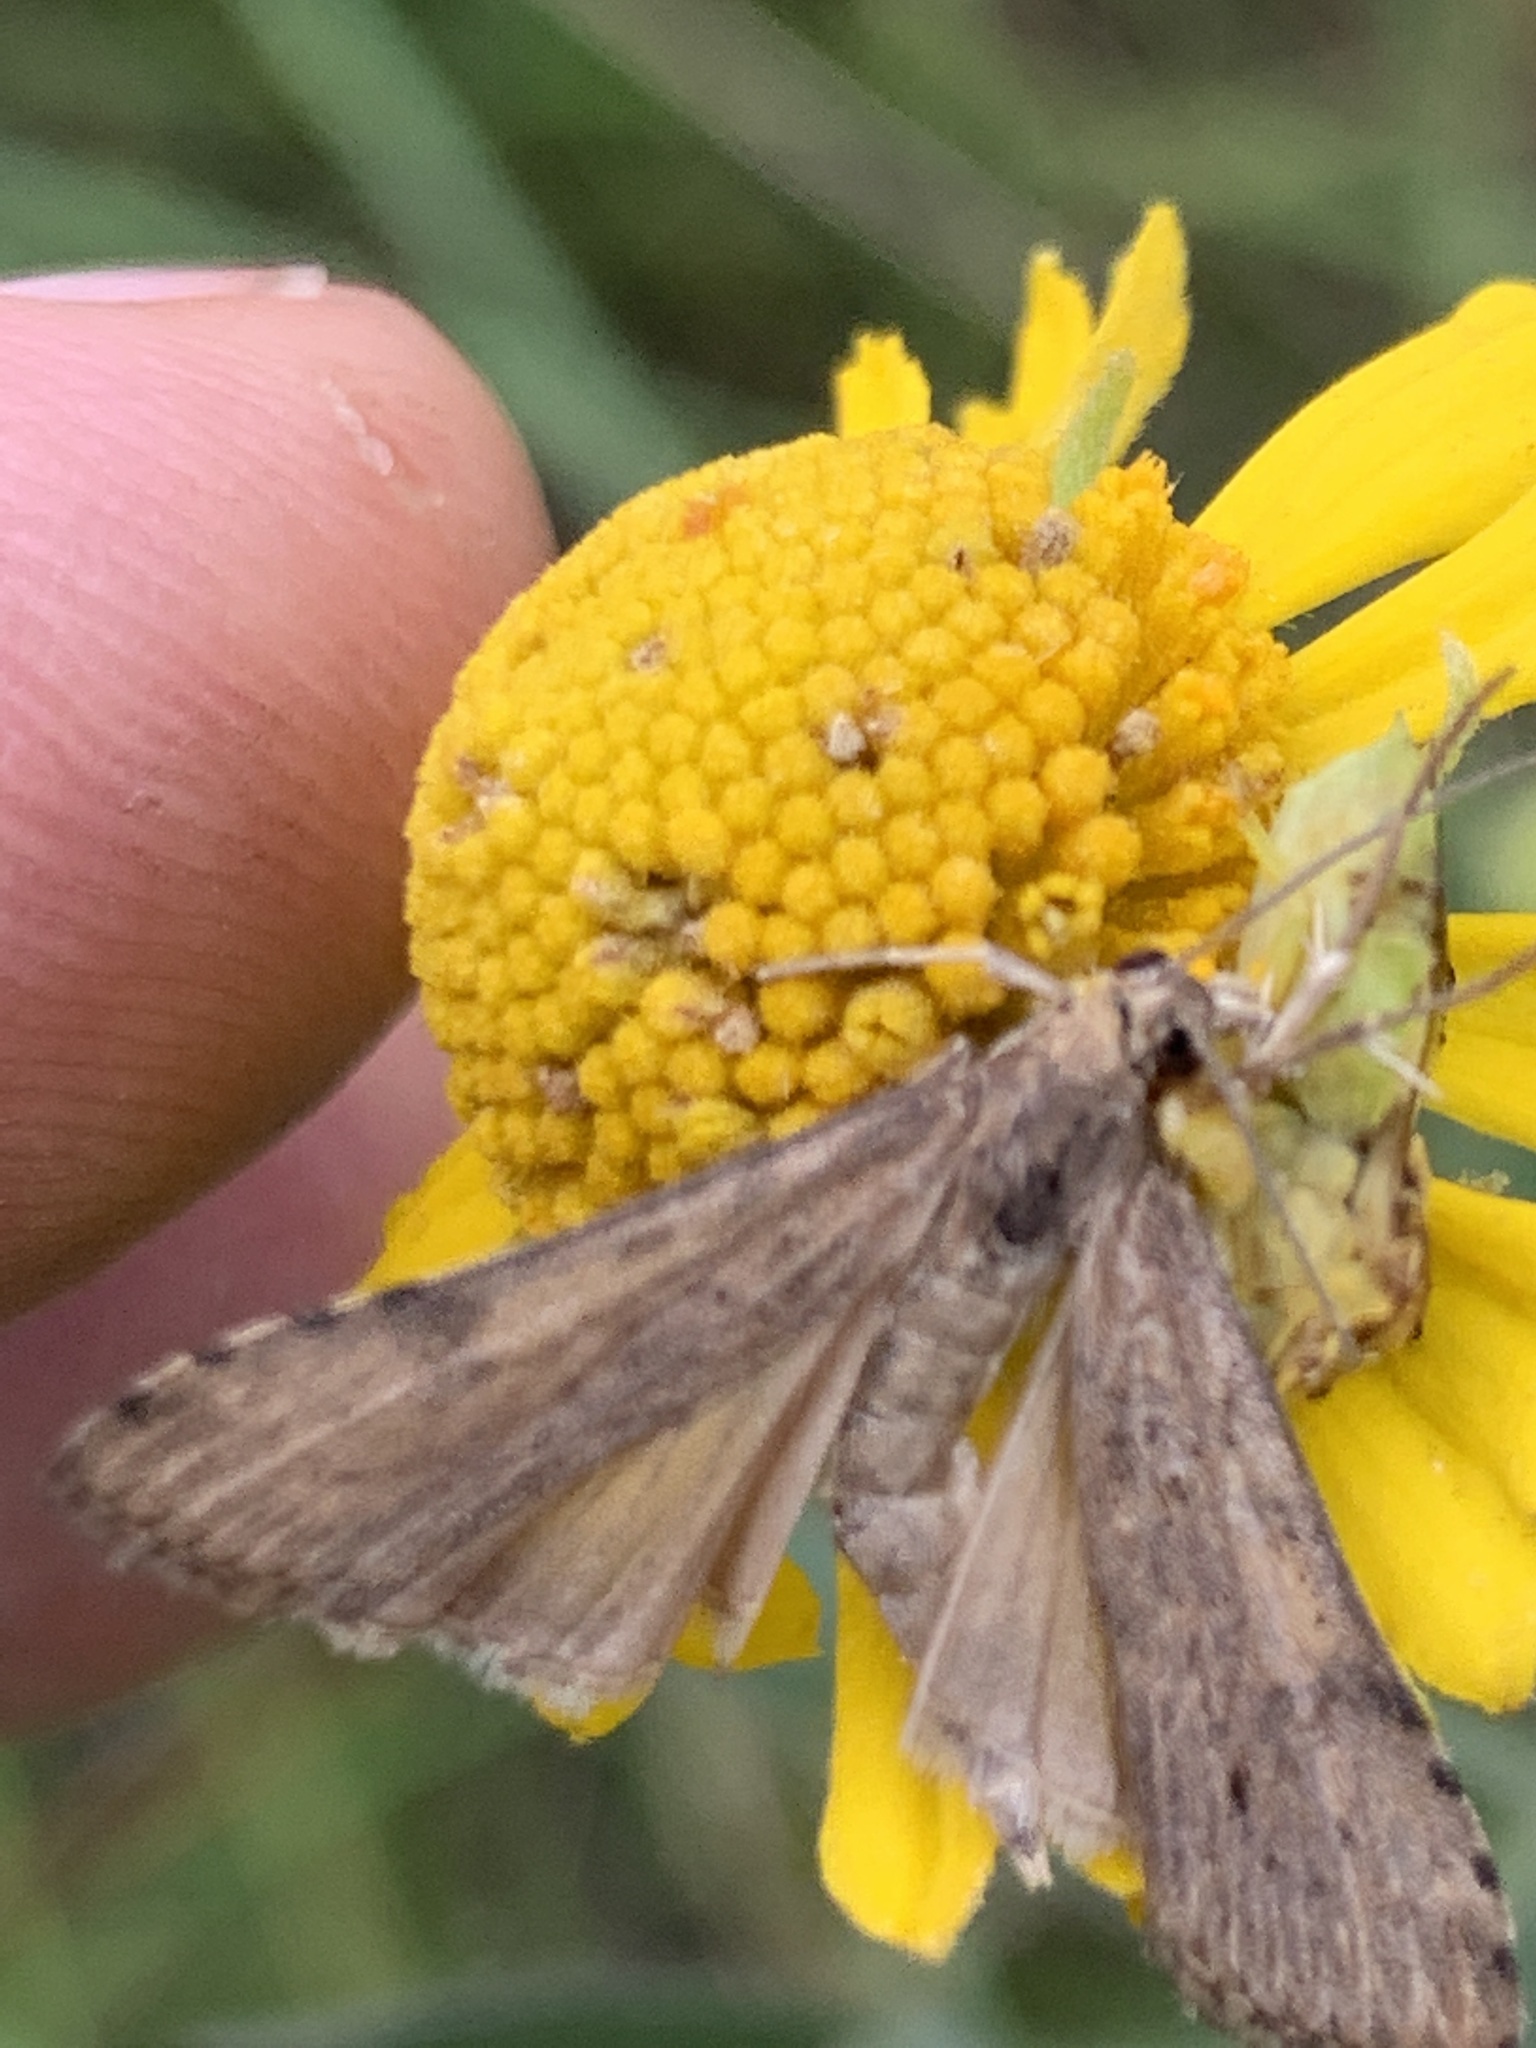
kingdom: Animalia
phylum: Arthropoda
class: Insecta
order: Lepidoptera
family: Crambidae
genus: Nomophila
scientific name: Nomophila nearctica
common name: American rush veneer
